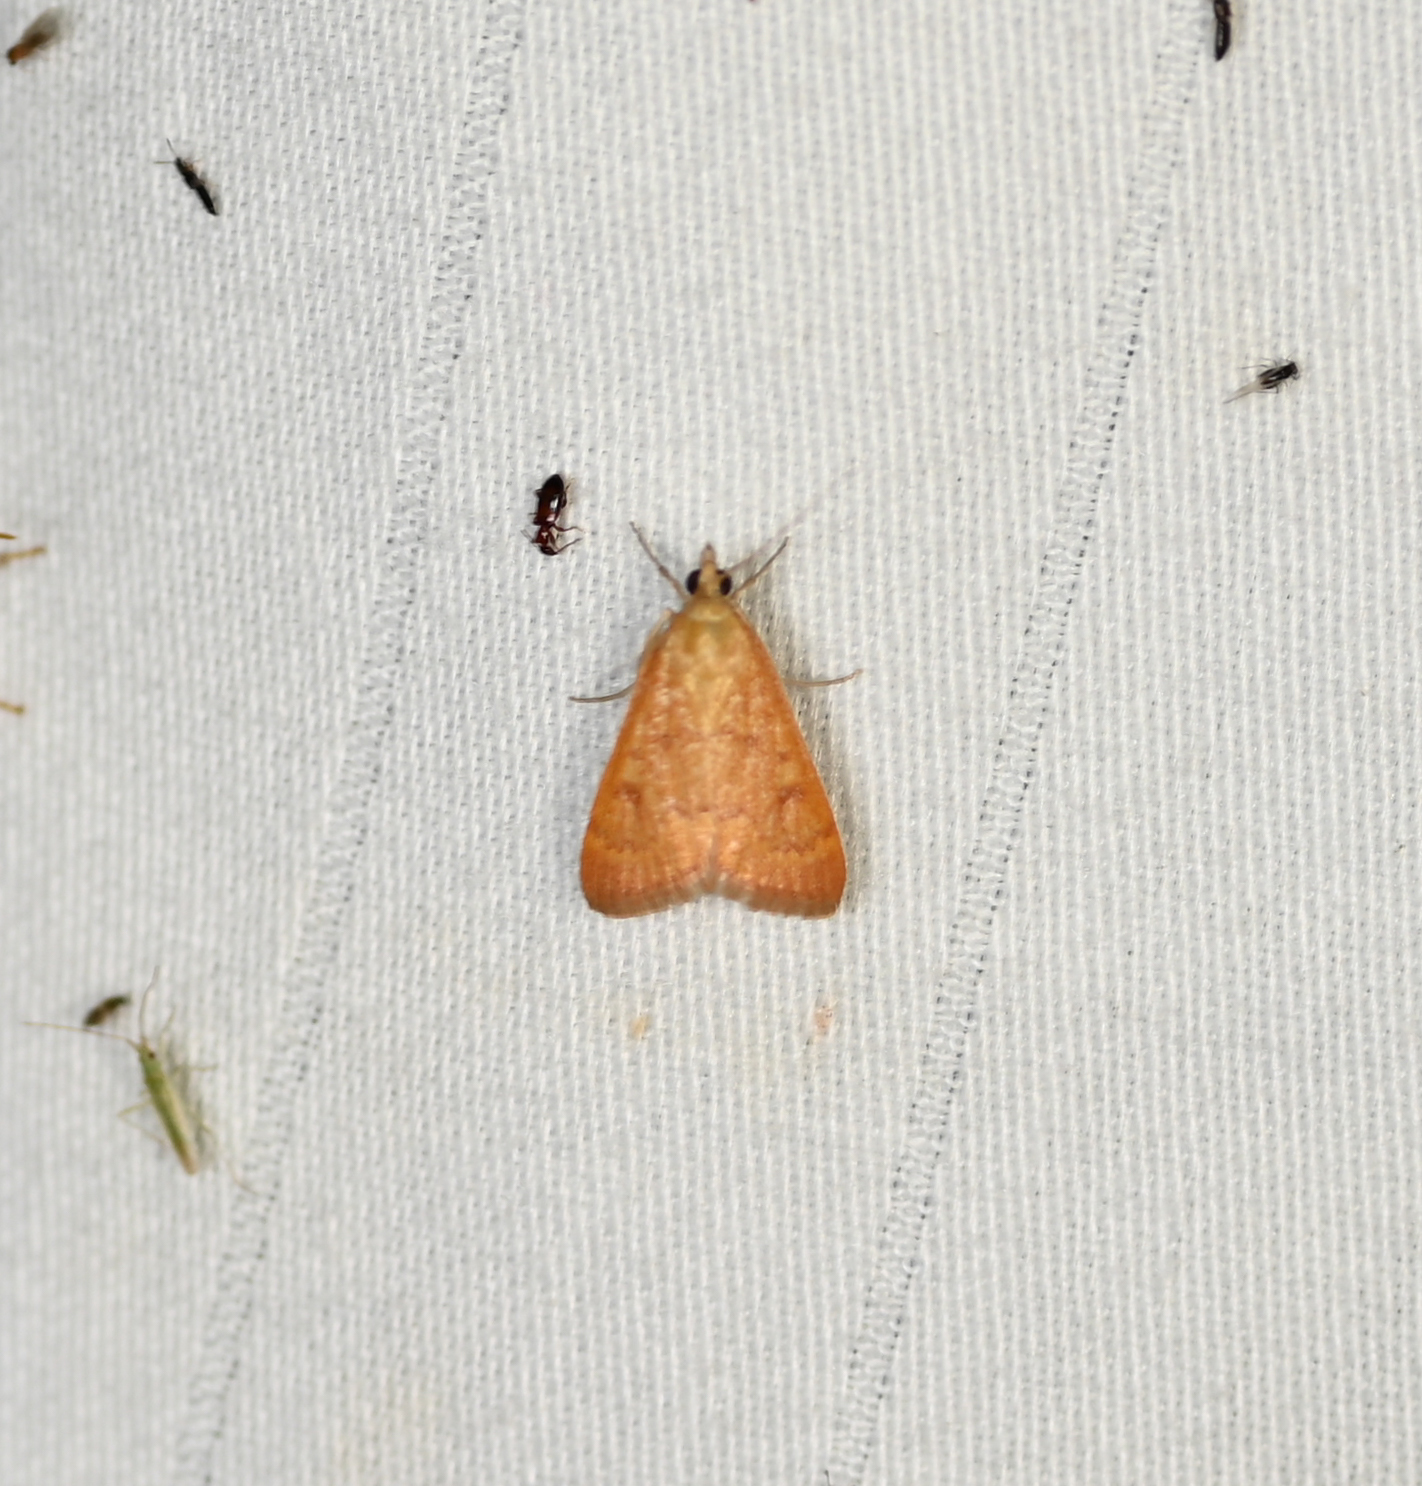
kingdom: Animalia
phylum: Arthropoda
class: Insecta
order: Lepidoptera
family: Crambidae
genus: Achyra
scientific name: Achyra rantalis
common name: Garden webworm
